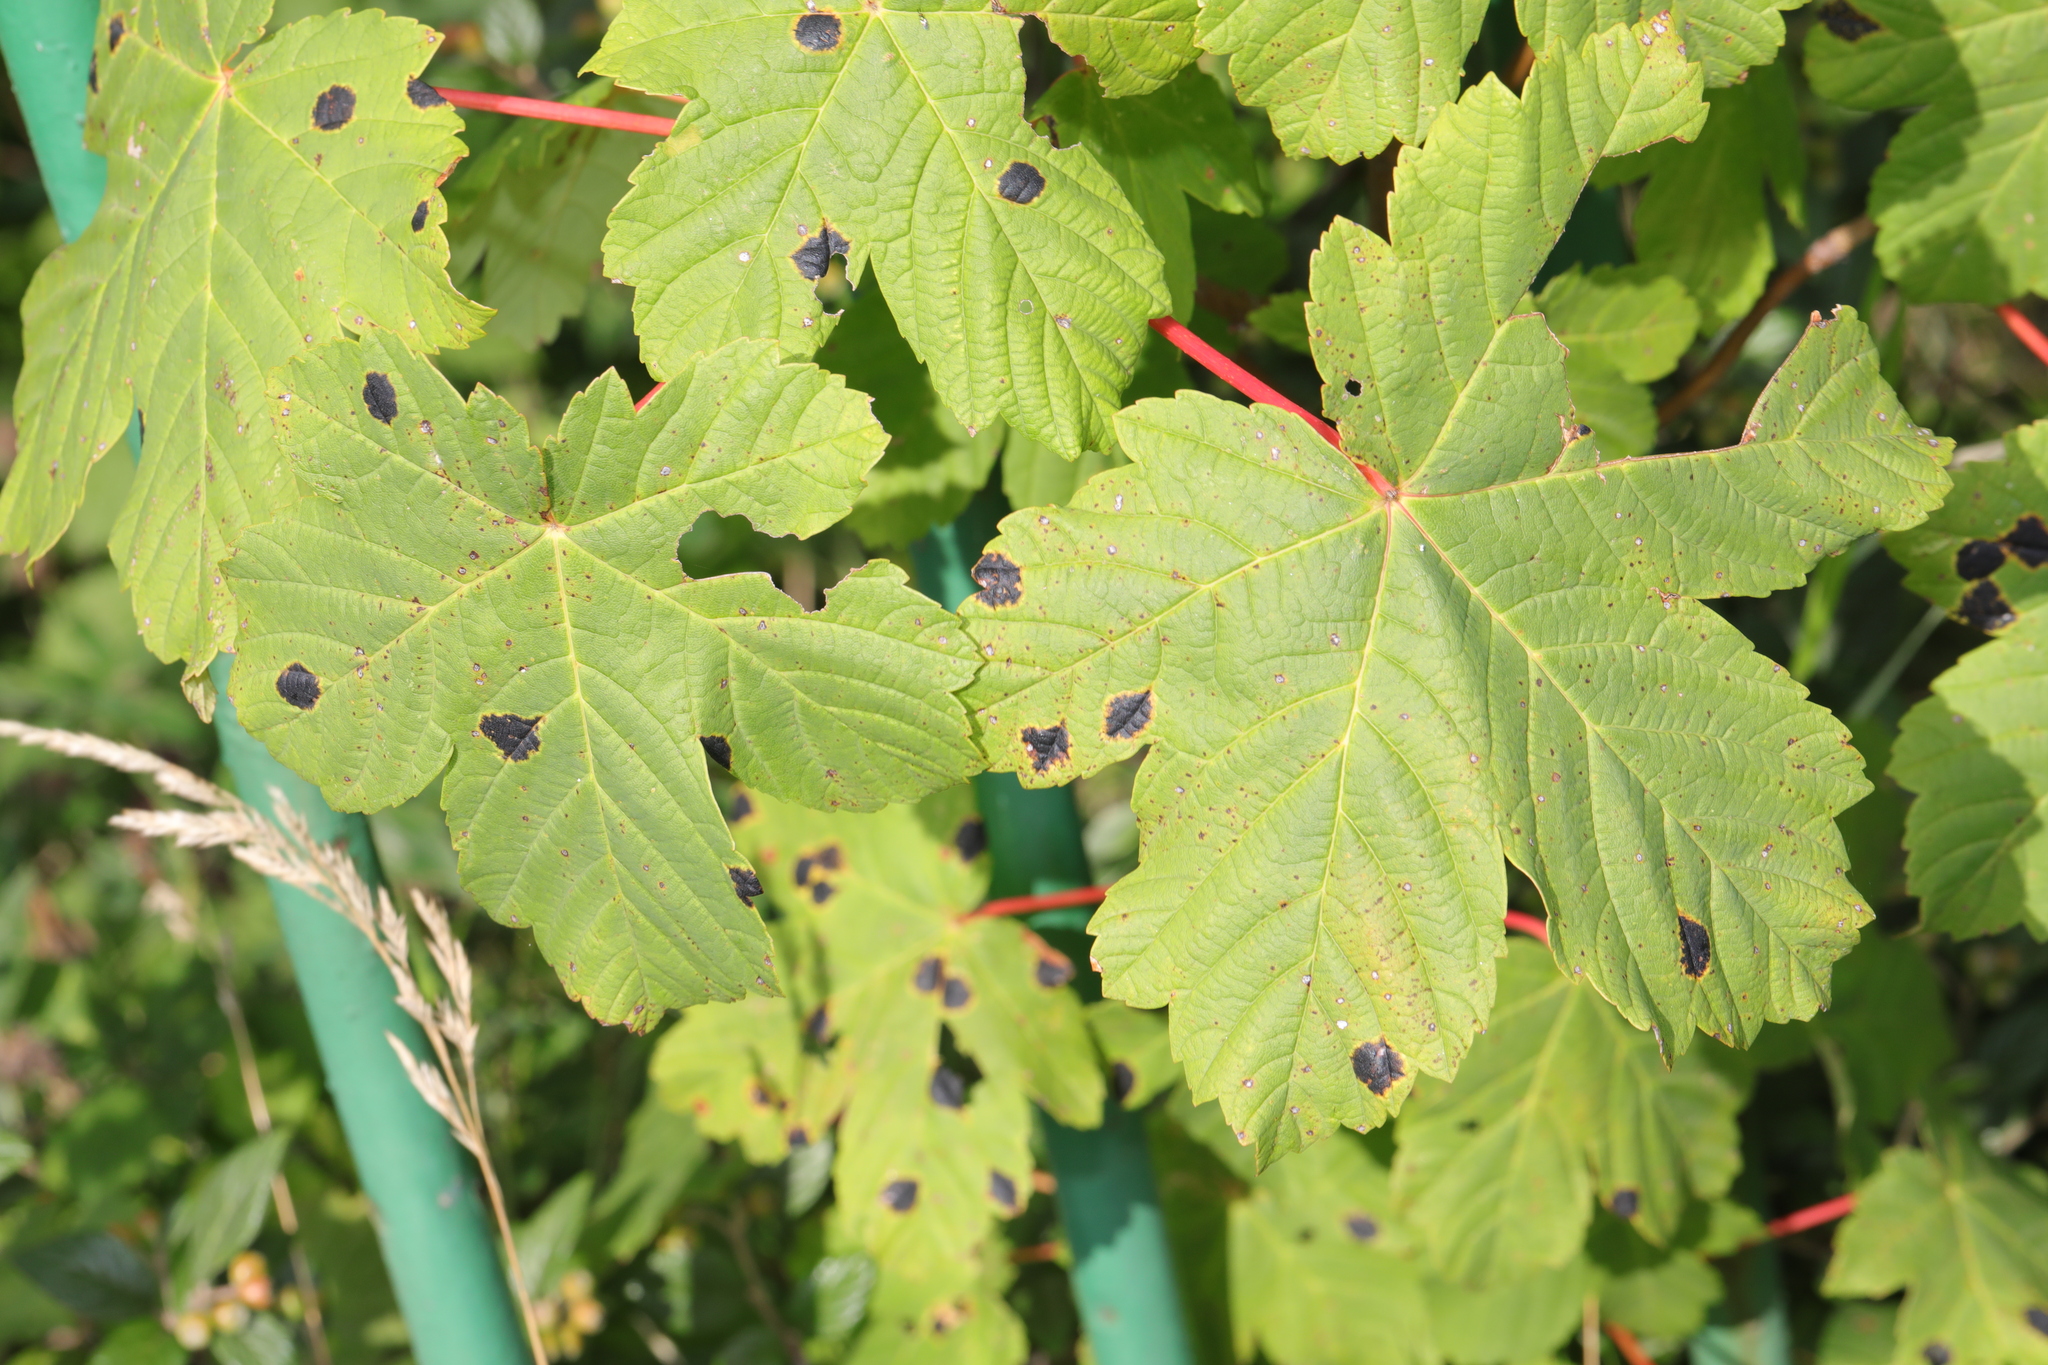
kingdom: Plantae
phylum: Tracheophyta
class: Magnoliopsida
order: Sapindales
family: Sapindaceae
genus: Acer
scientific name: Acer pseudoplatanus
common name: Sycamore
